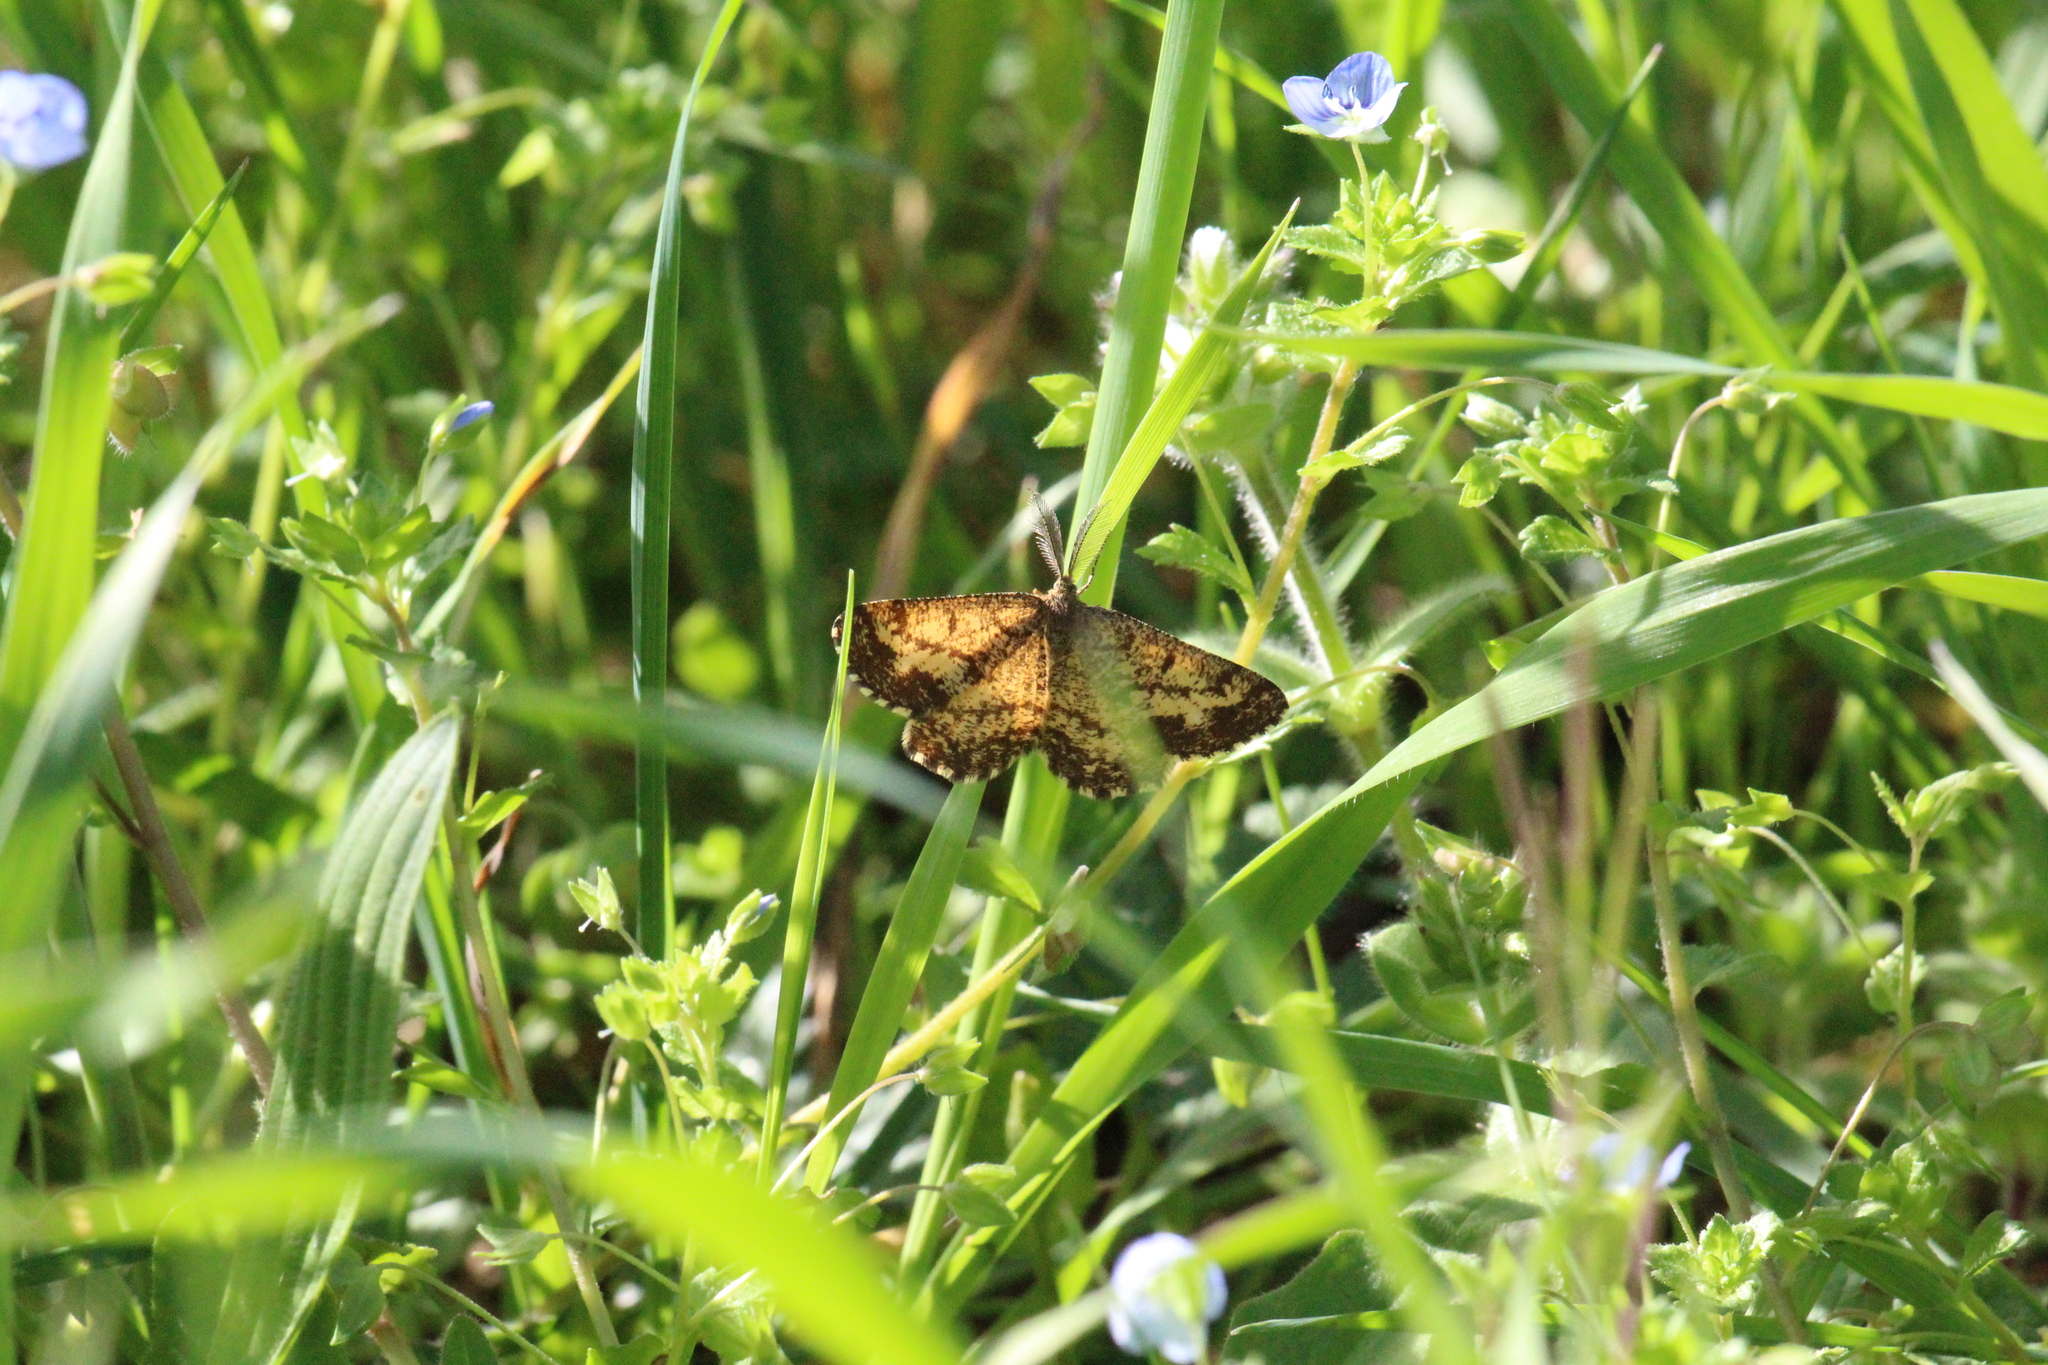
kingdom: Animalia
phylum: Arthropoda
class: Insecta
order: Lepidoptera
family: Geometridae
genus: Ematurga
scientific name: Ematurga atomaria
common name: Common heath
